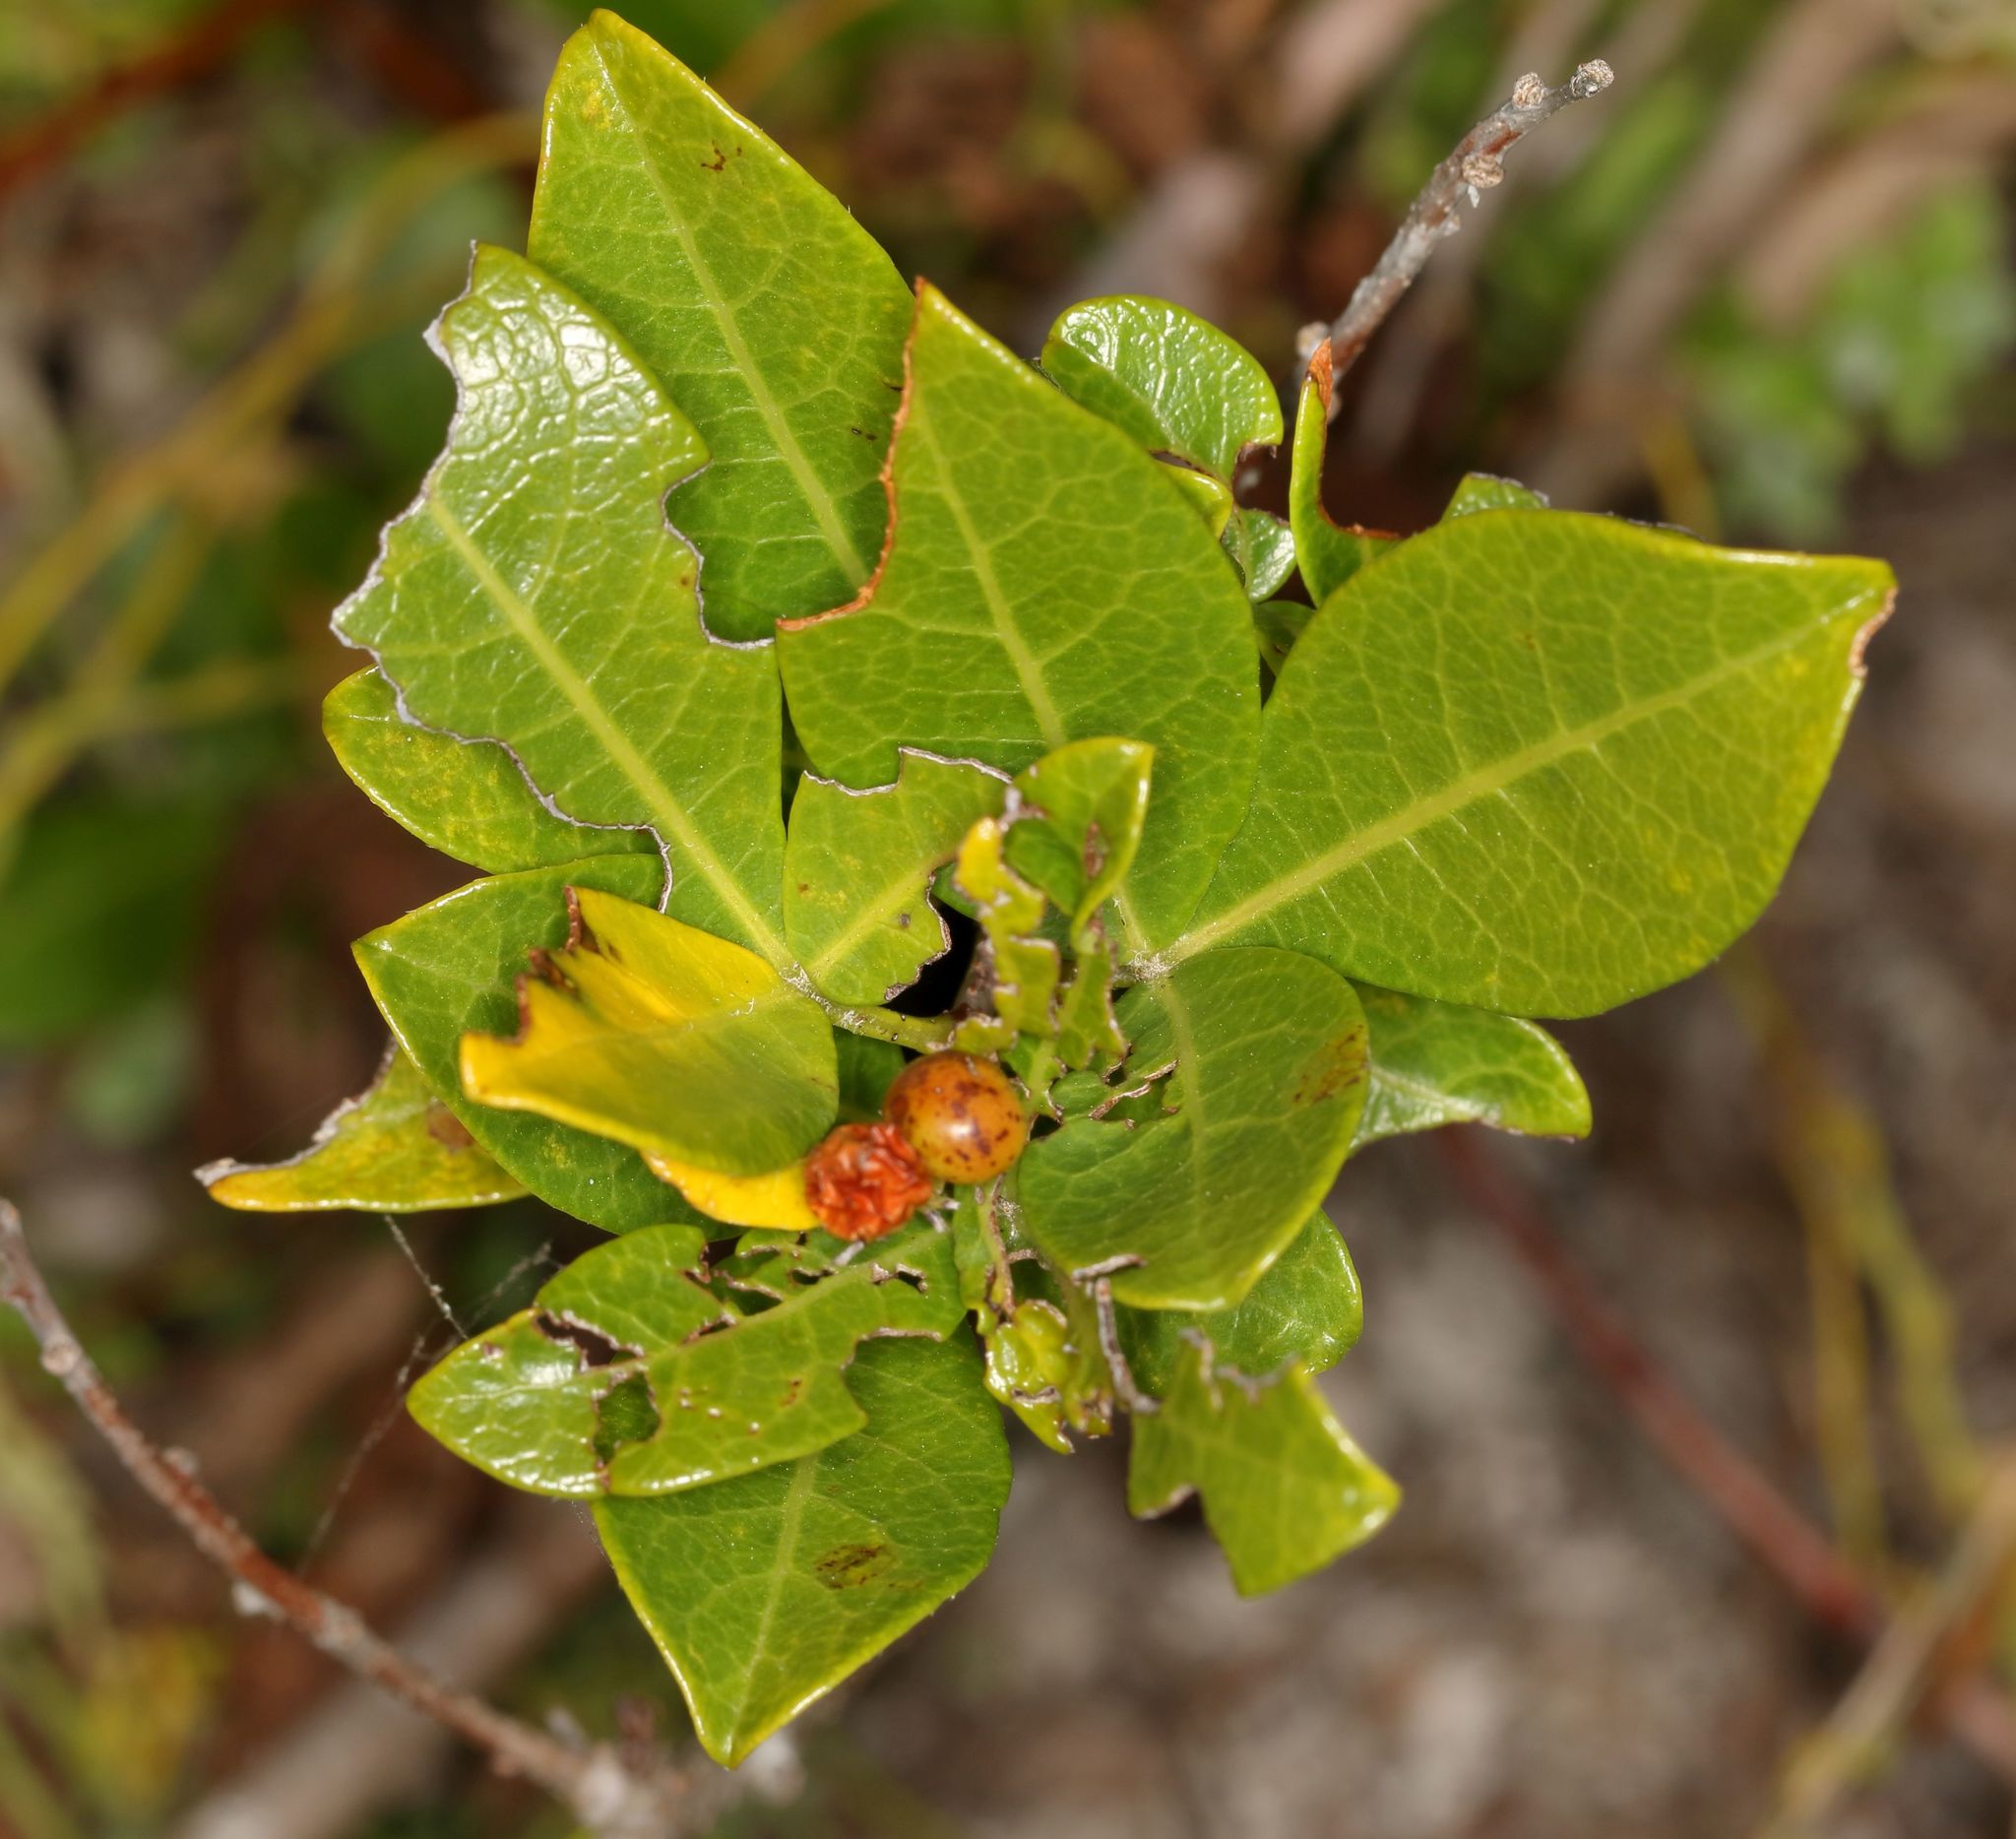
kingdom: Plantae
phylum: Tracheophyta
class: Magnoliopsida
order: Sapindales
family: Anacardiaceae
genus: Searsia
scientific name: Searsia laevigata
